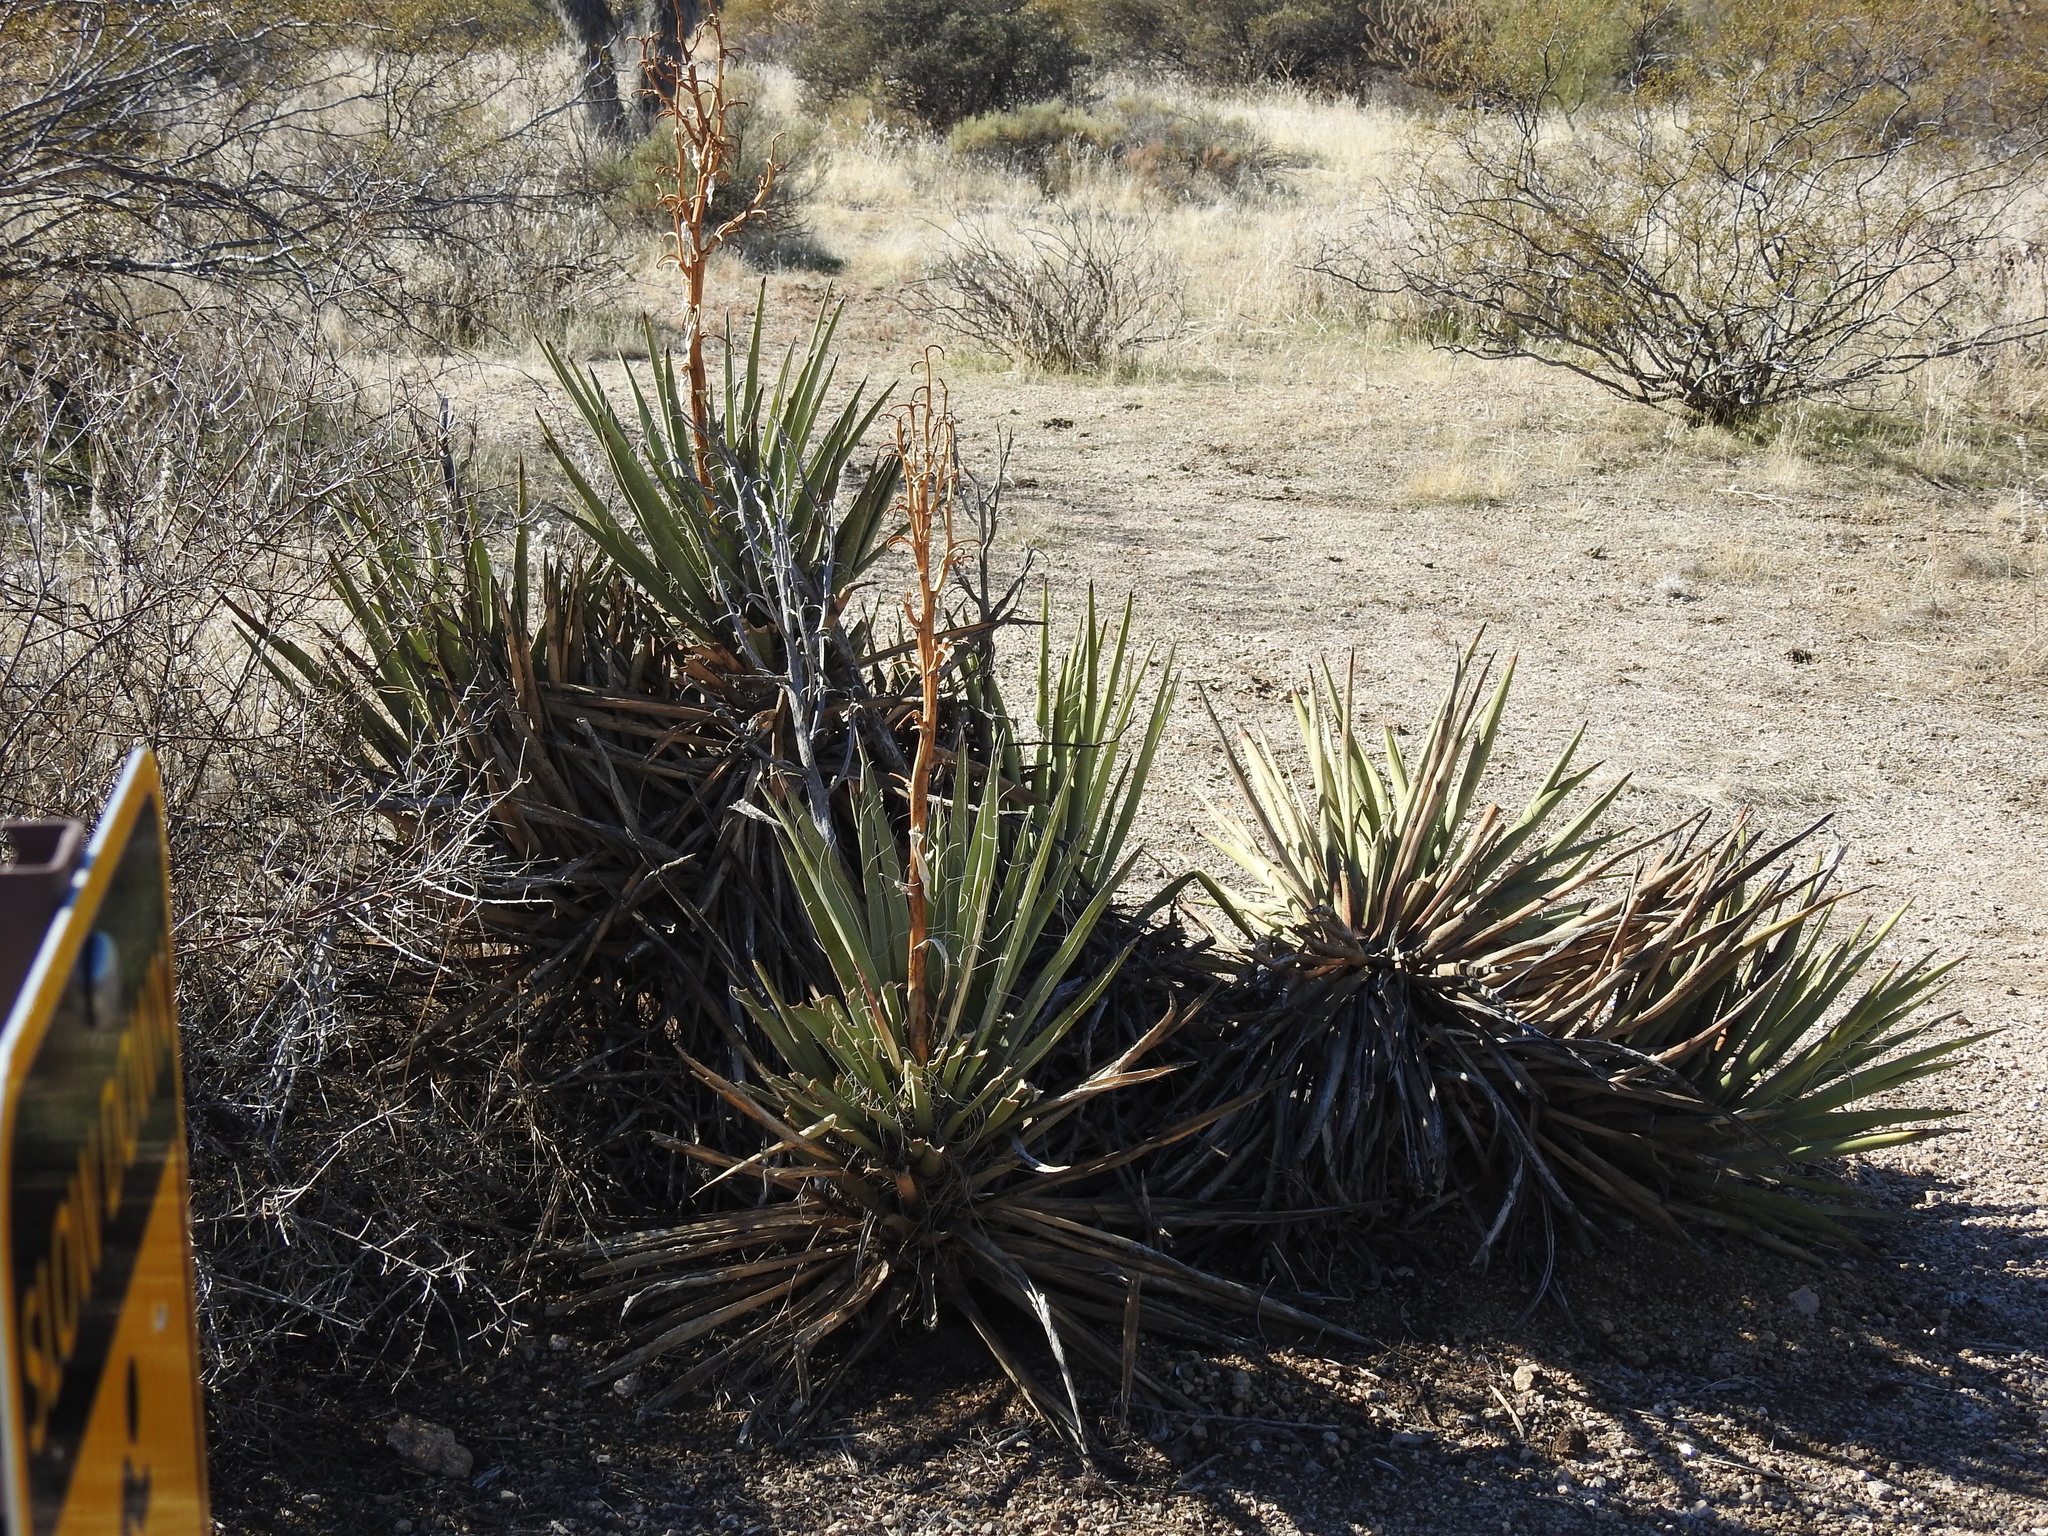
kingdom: Plantae
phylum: Tracheophyta
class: Liliopsida
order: Asparagales
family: Asparagaceae
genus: Yucca
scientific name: Yucca baccata
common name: Banana yucca
